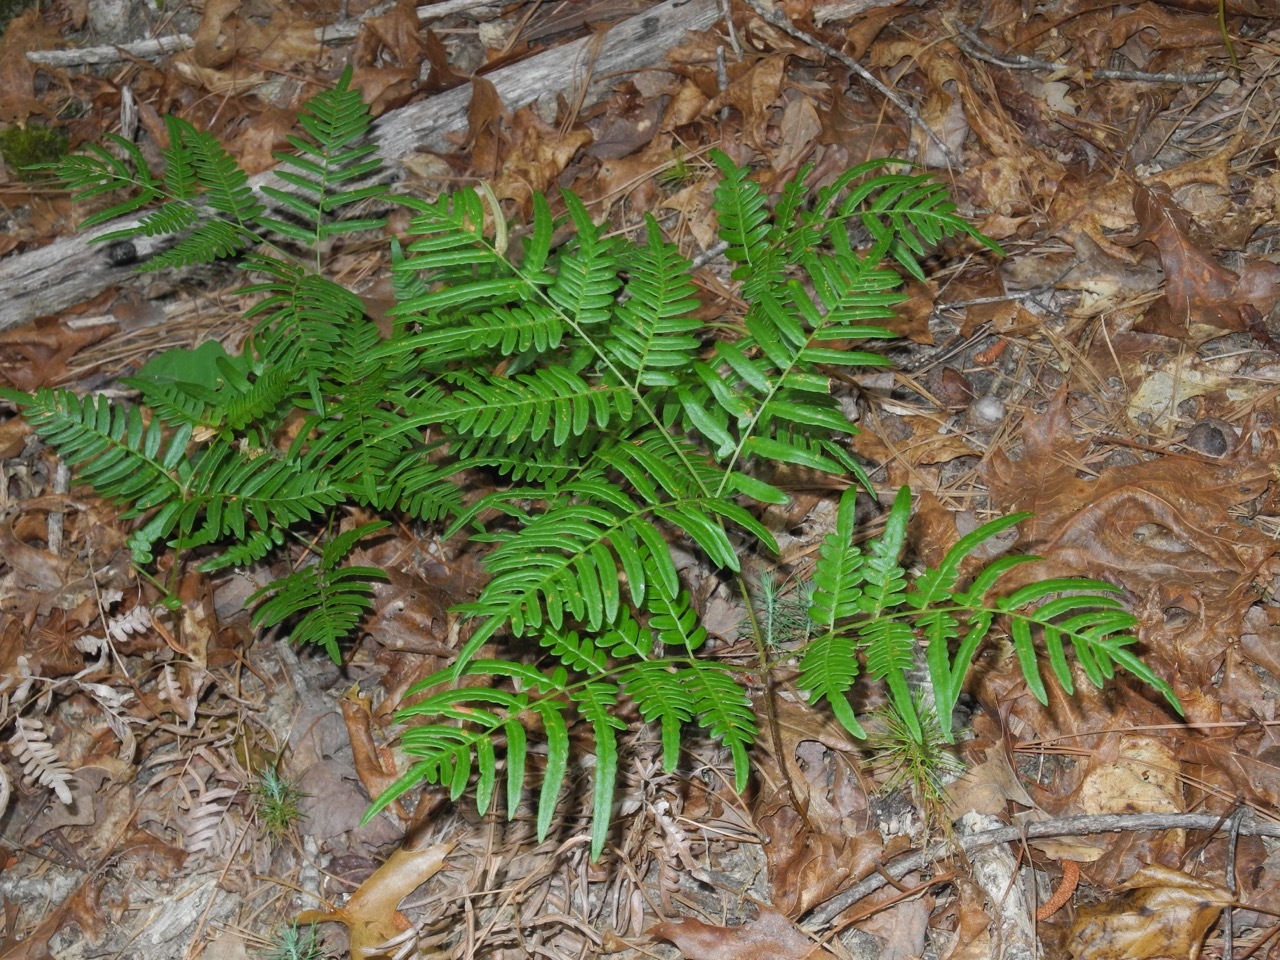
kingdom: Plantae
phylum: Tracheophyta
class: Polypodiopsida
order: Polypodiales
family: Dennstaedtiaceae
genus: Pteridium
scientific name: Pteridium
